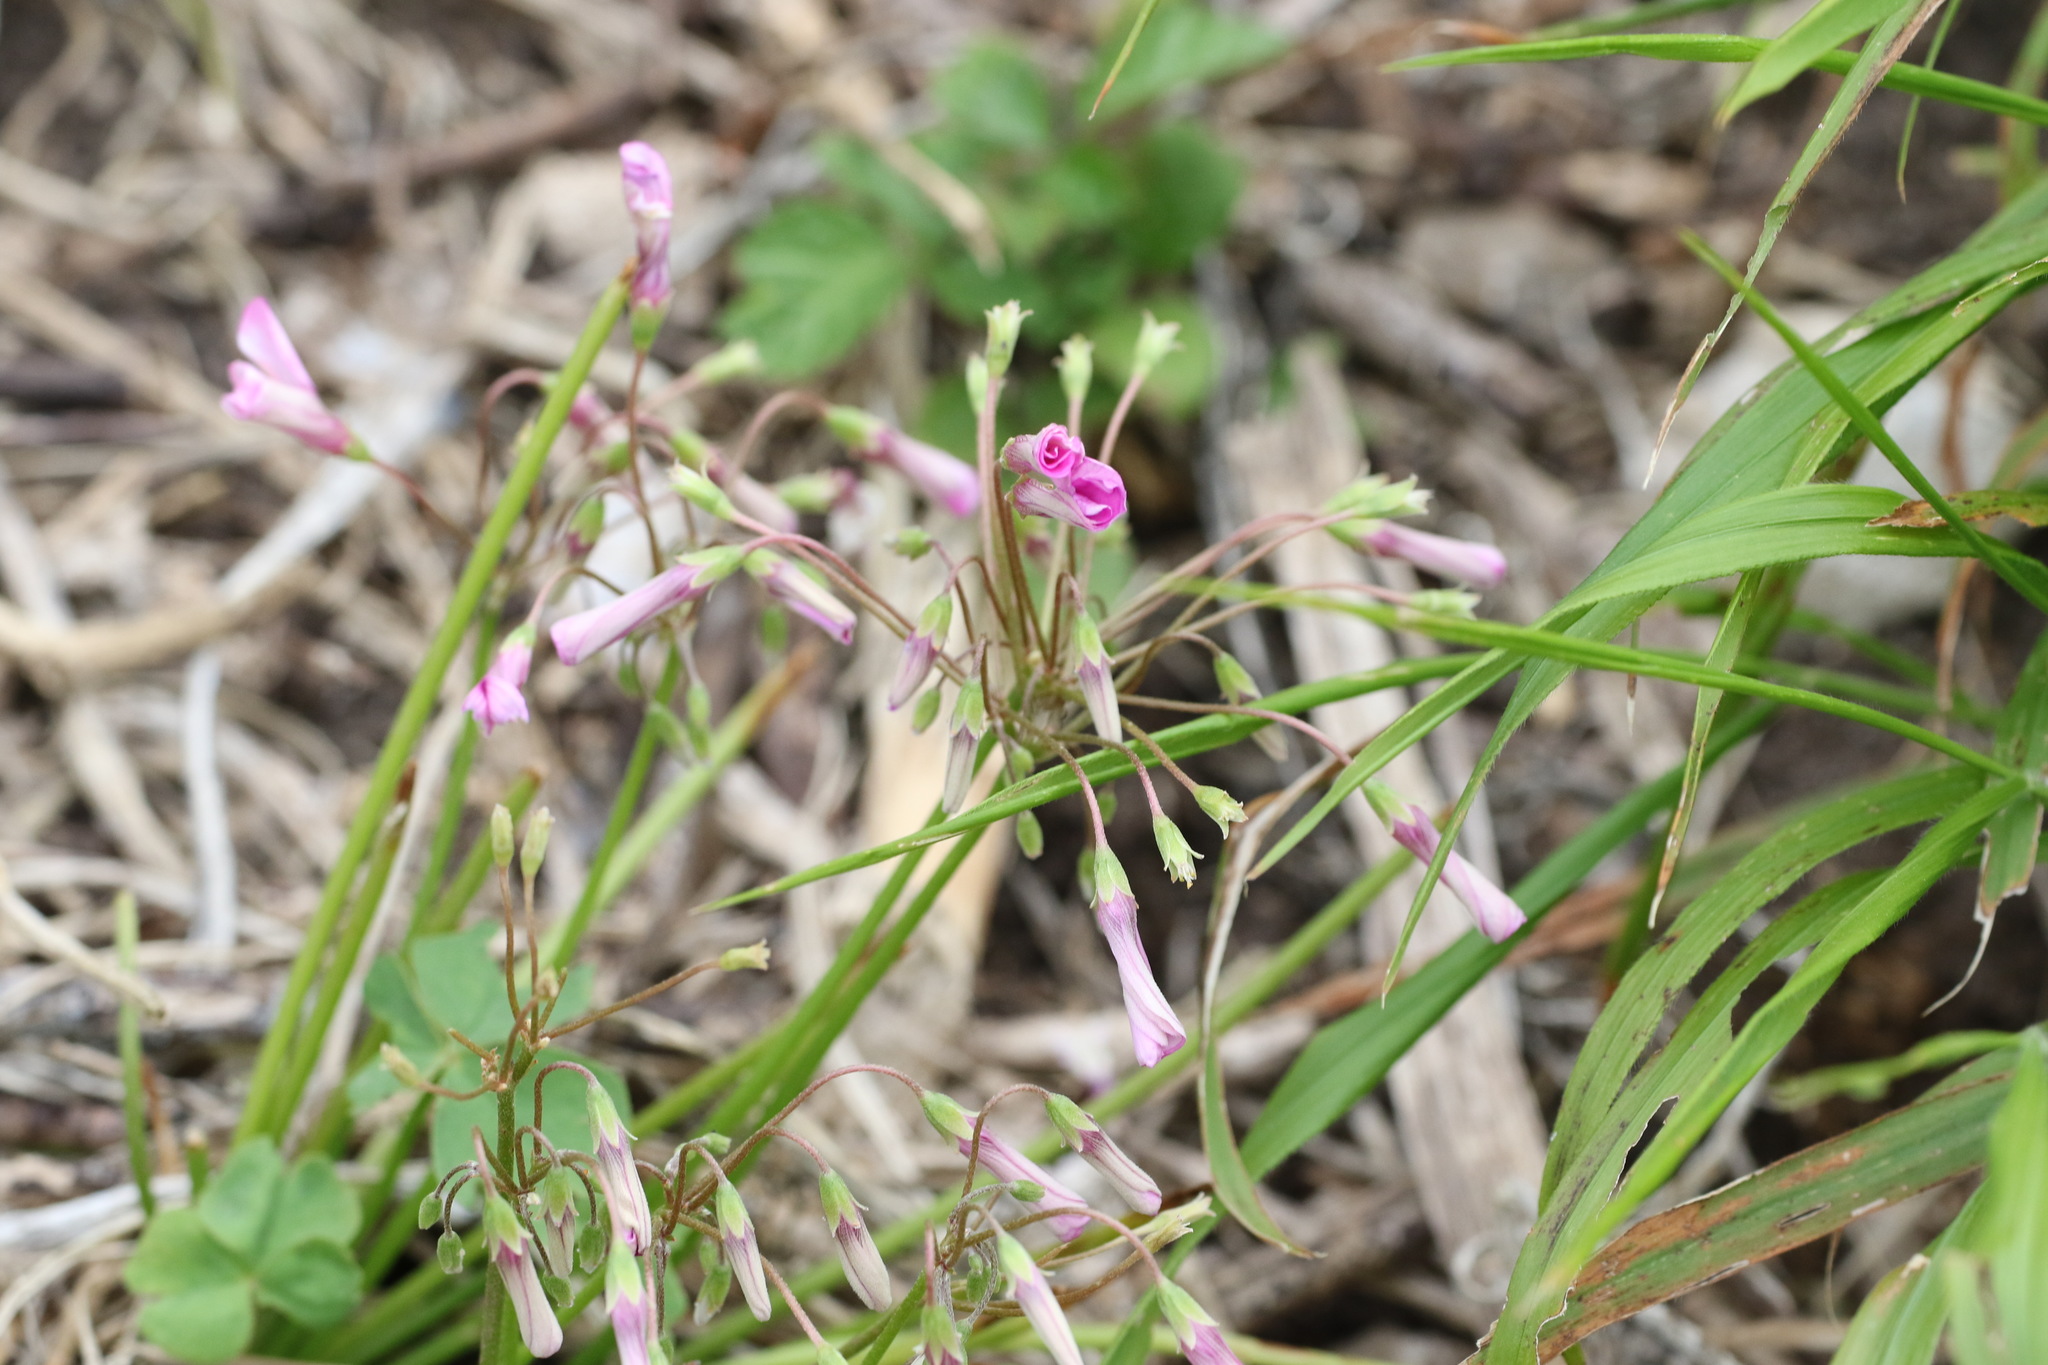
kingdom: Plantae
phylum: Tracheophyta
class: Magnoliopsida
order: Oxalidales
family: Oxalidaceae
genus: Oxalis
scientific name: Oxalis articulata
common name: Pink-sorrel
